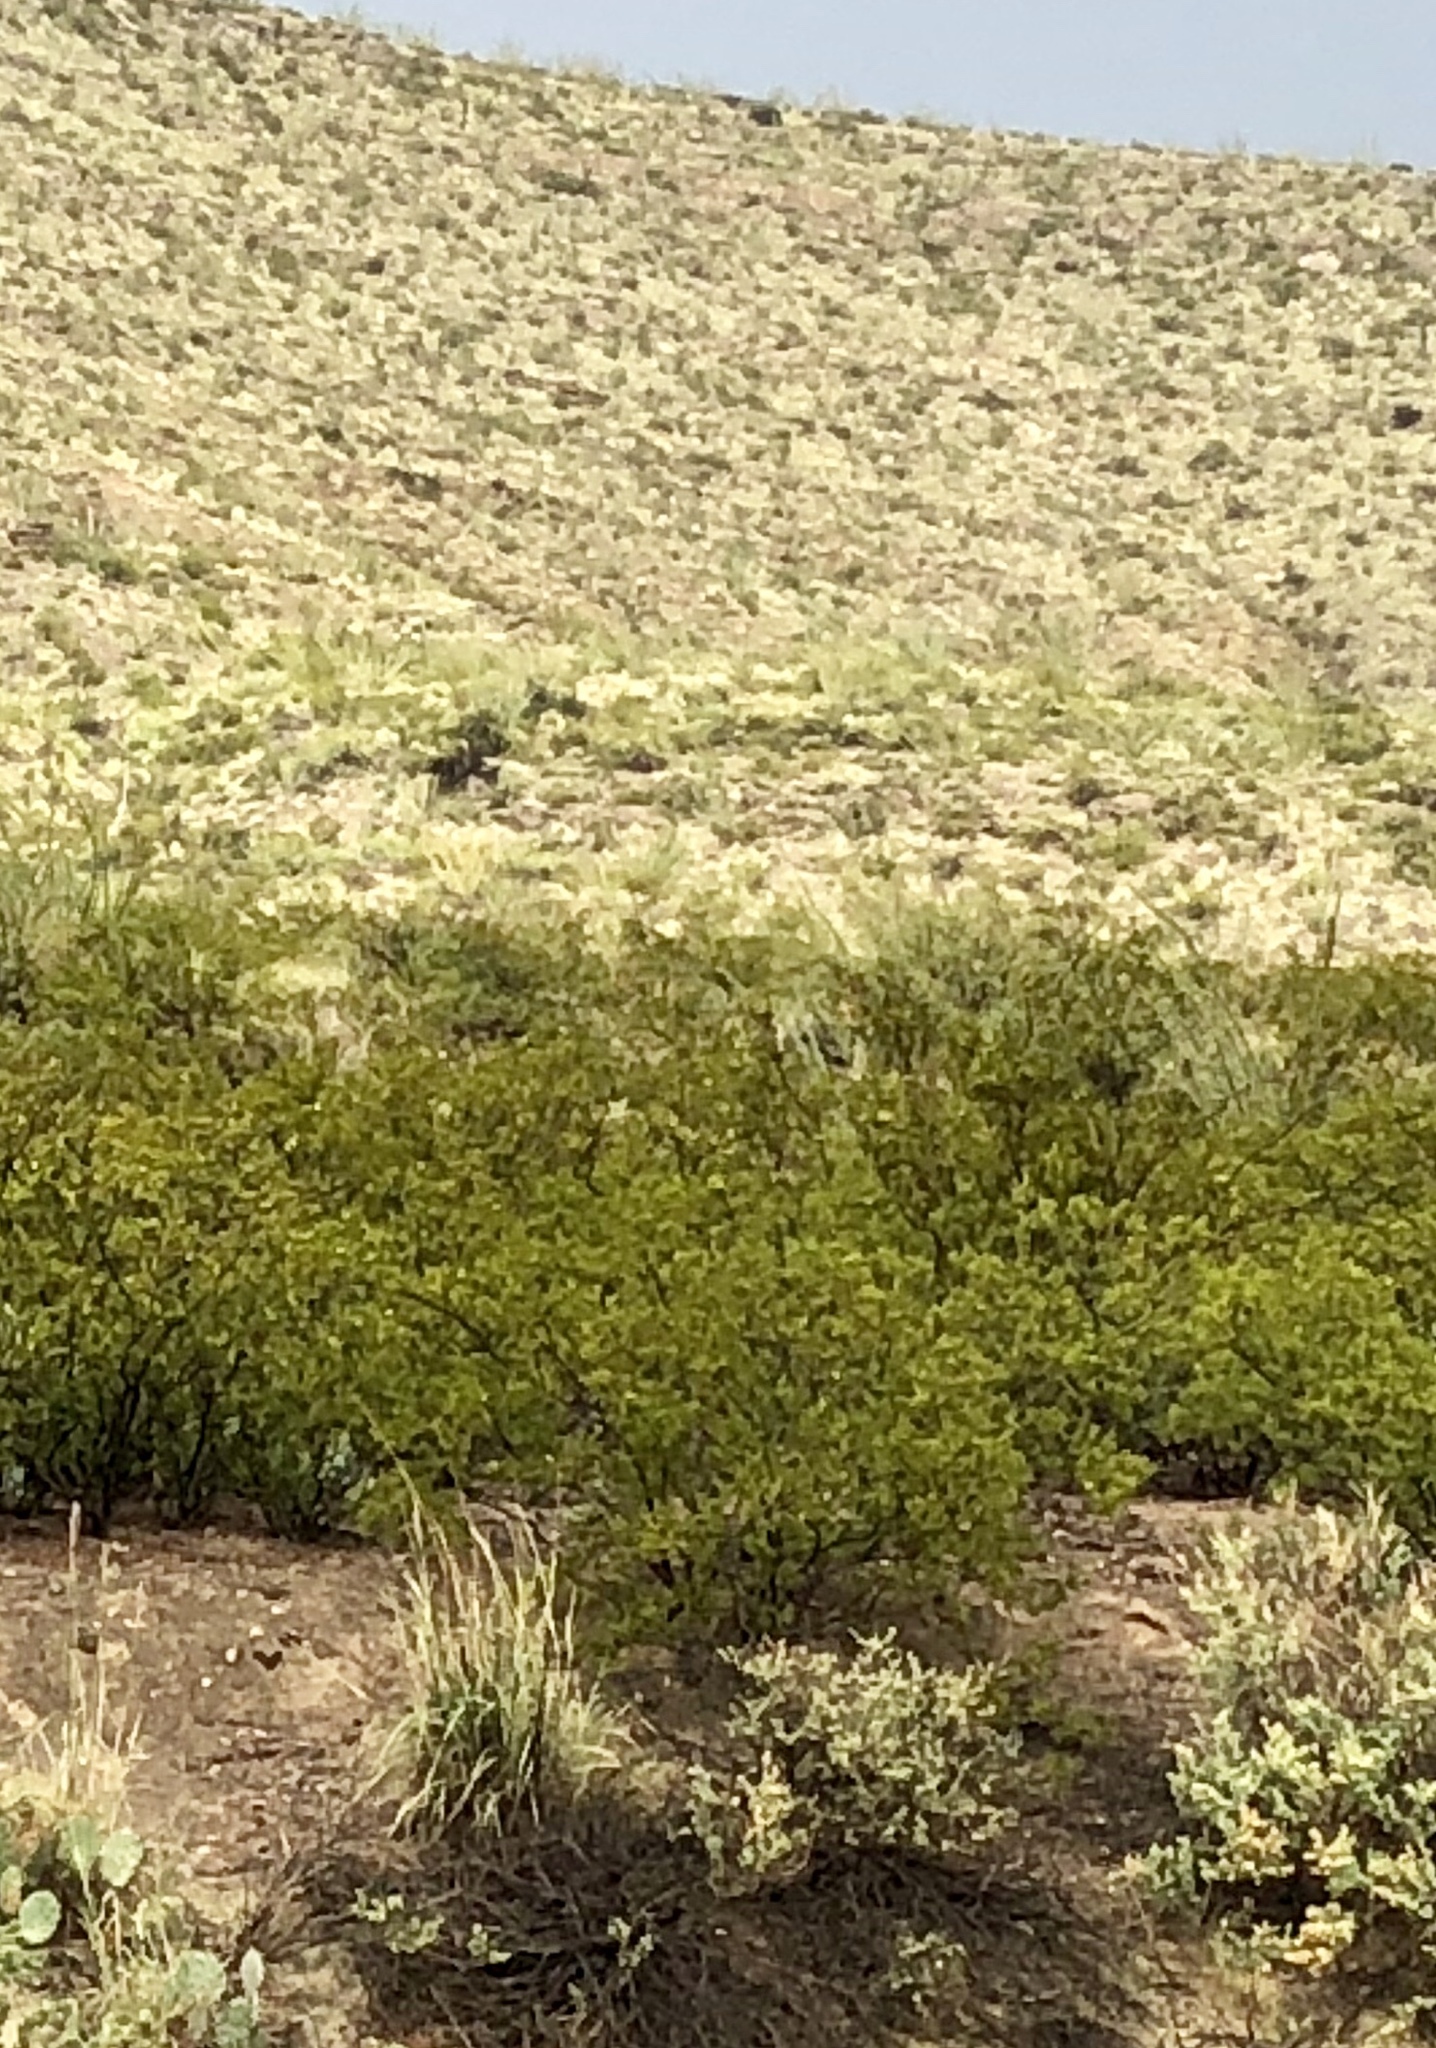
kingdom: Plantae
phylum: Tracheophyta
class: Magnoliopsida
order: Zygophyllales
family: Zygophyllaceae
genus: Larrea
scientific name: Larrea tridentata
